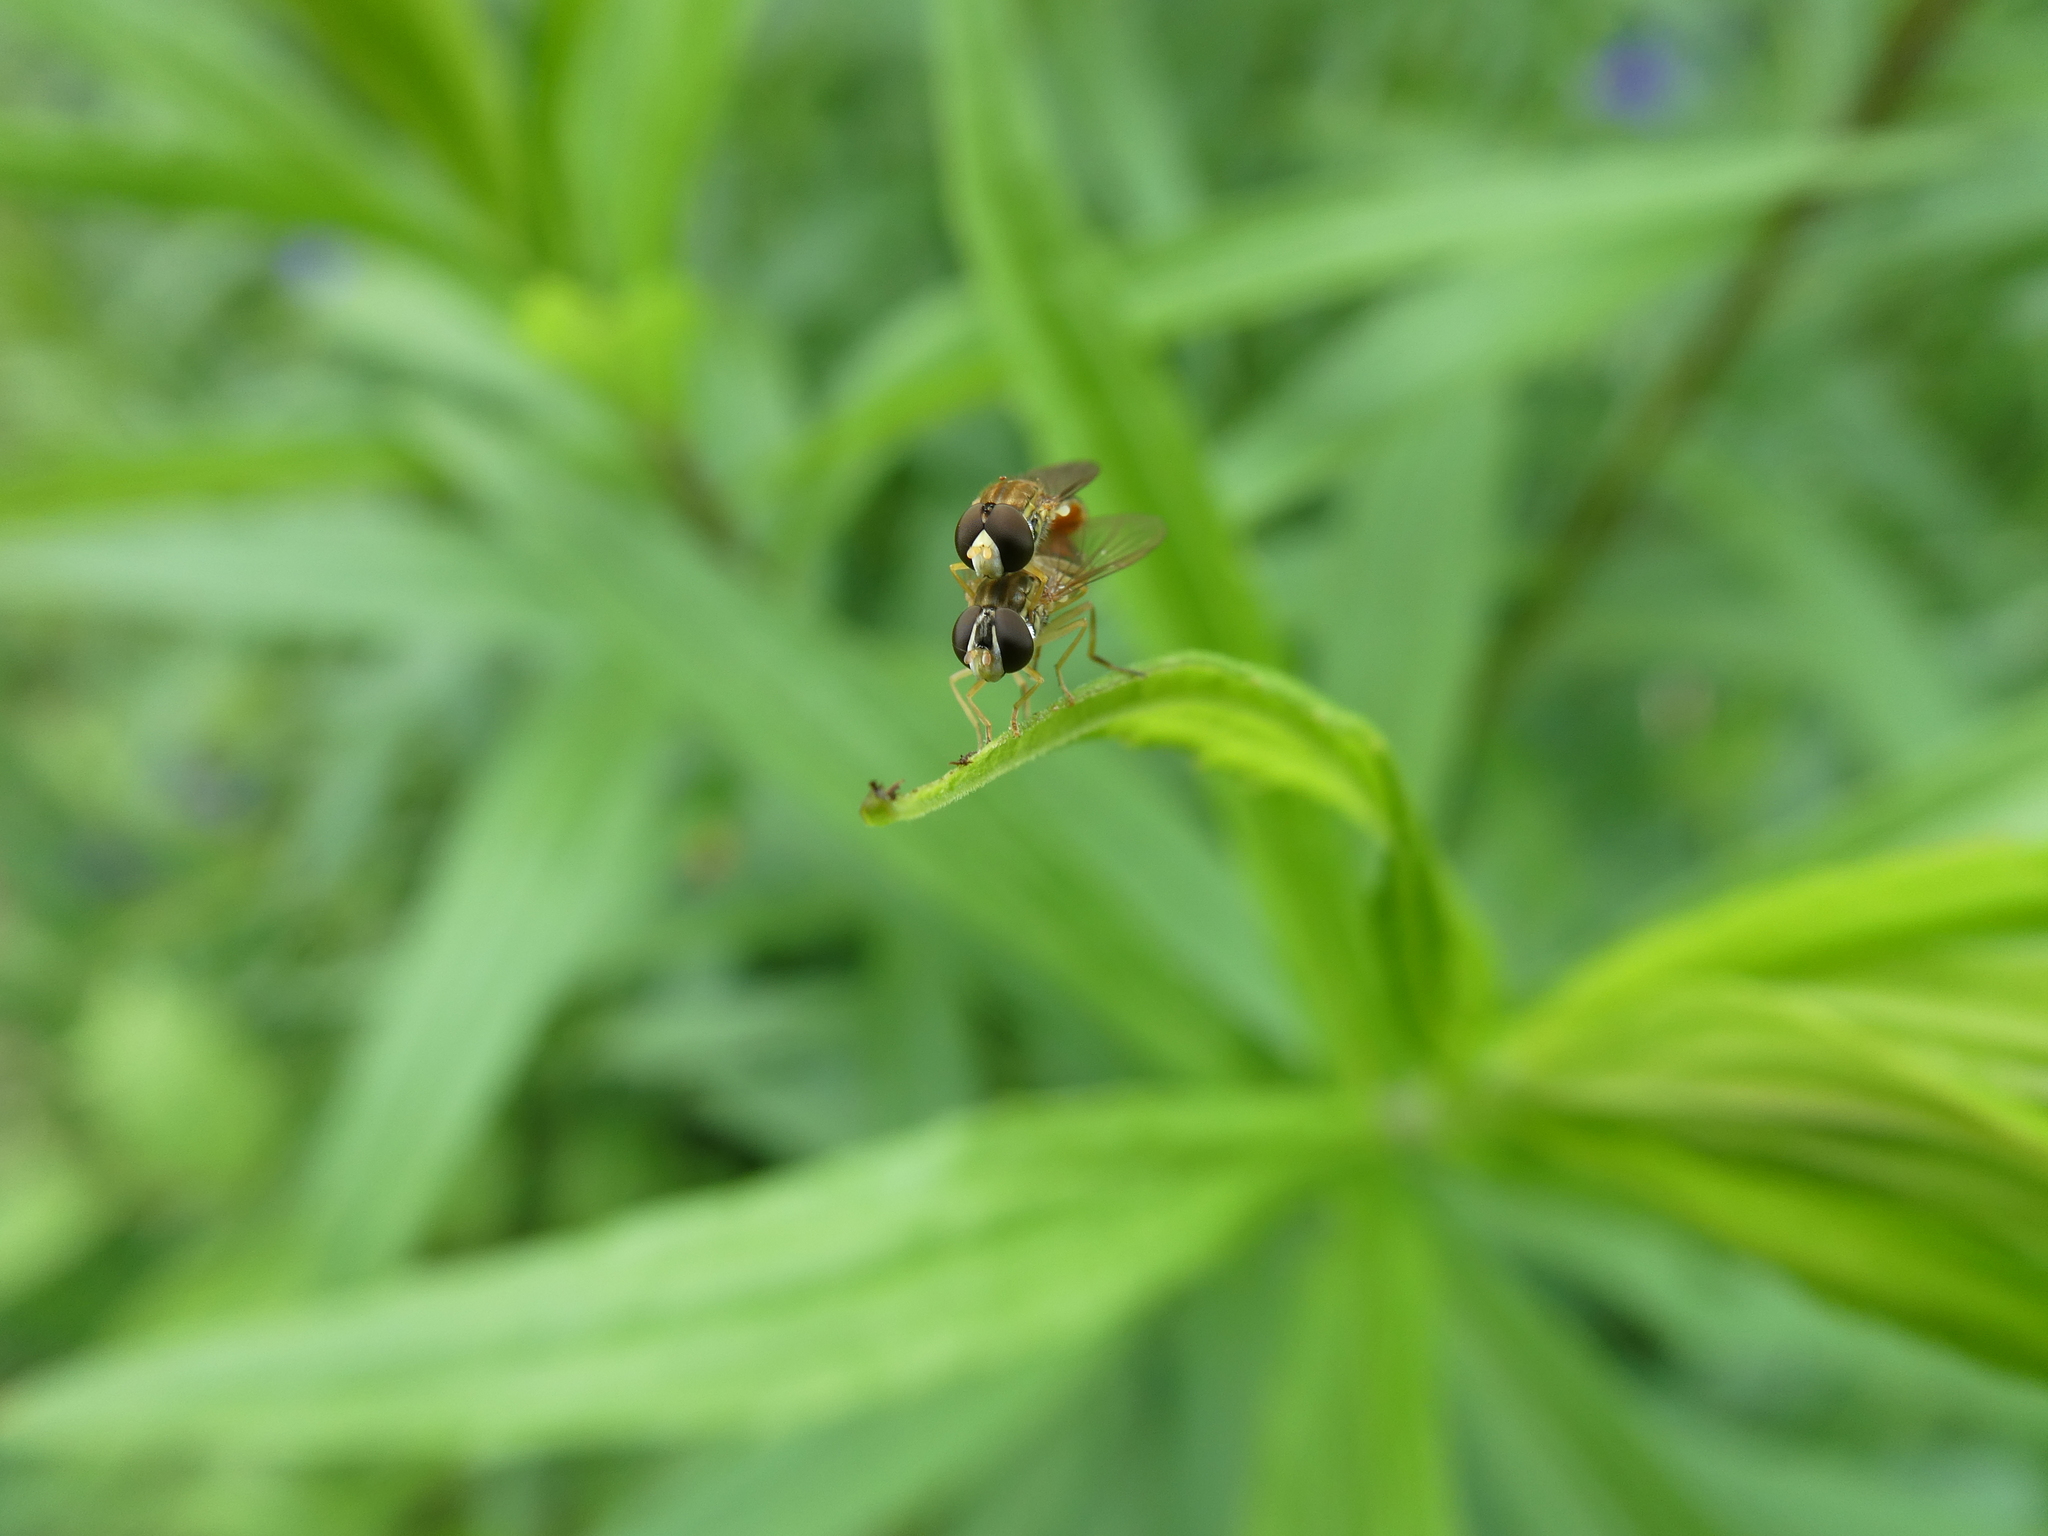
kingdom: Animalia
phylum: Arthropoda
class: Insecta
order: Diptera
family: Syrphidae
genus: Toxomerus
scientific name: Toxomerus marginatus
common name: Syrphid fly
